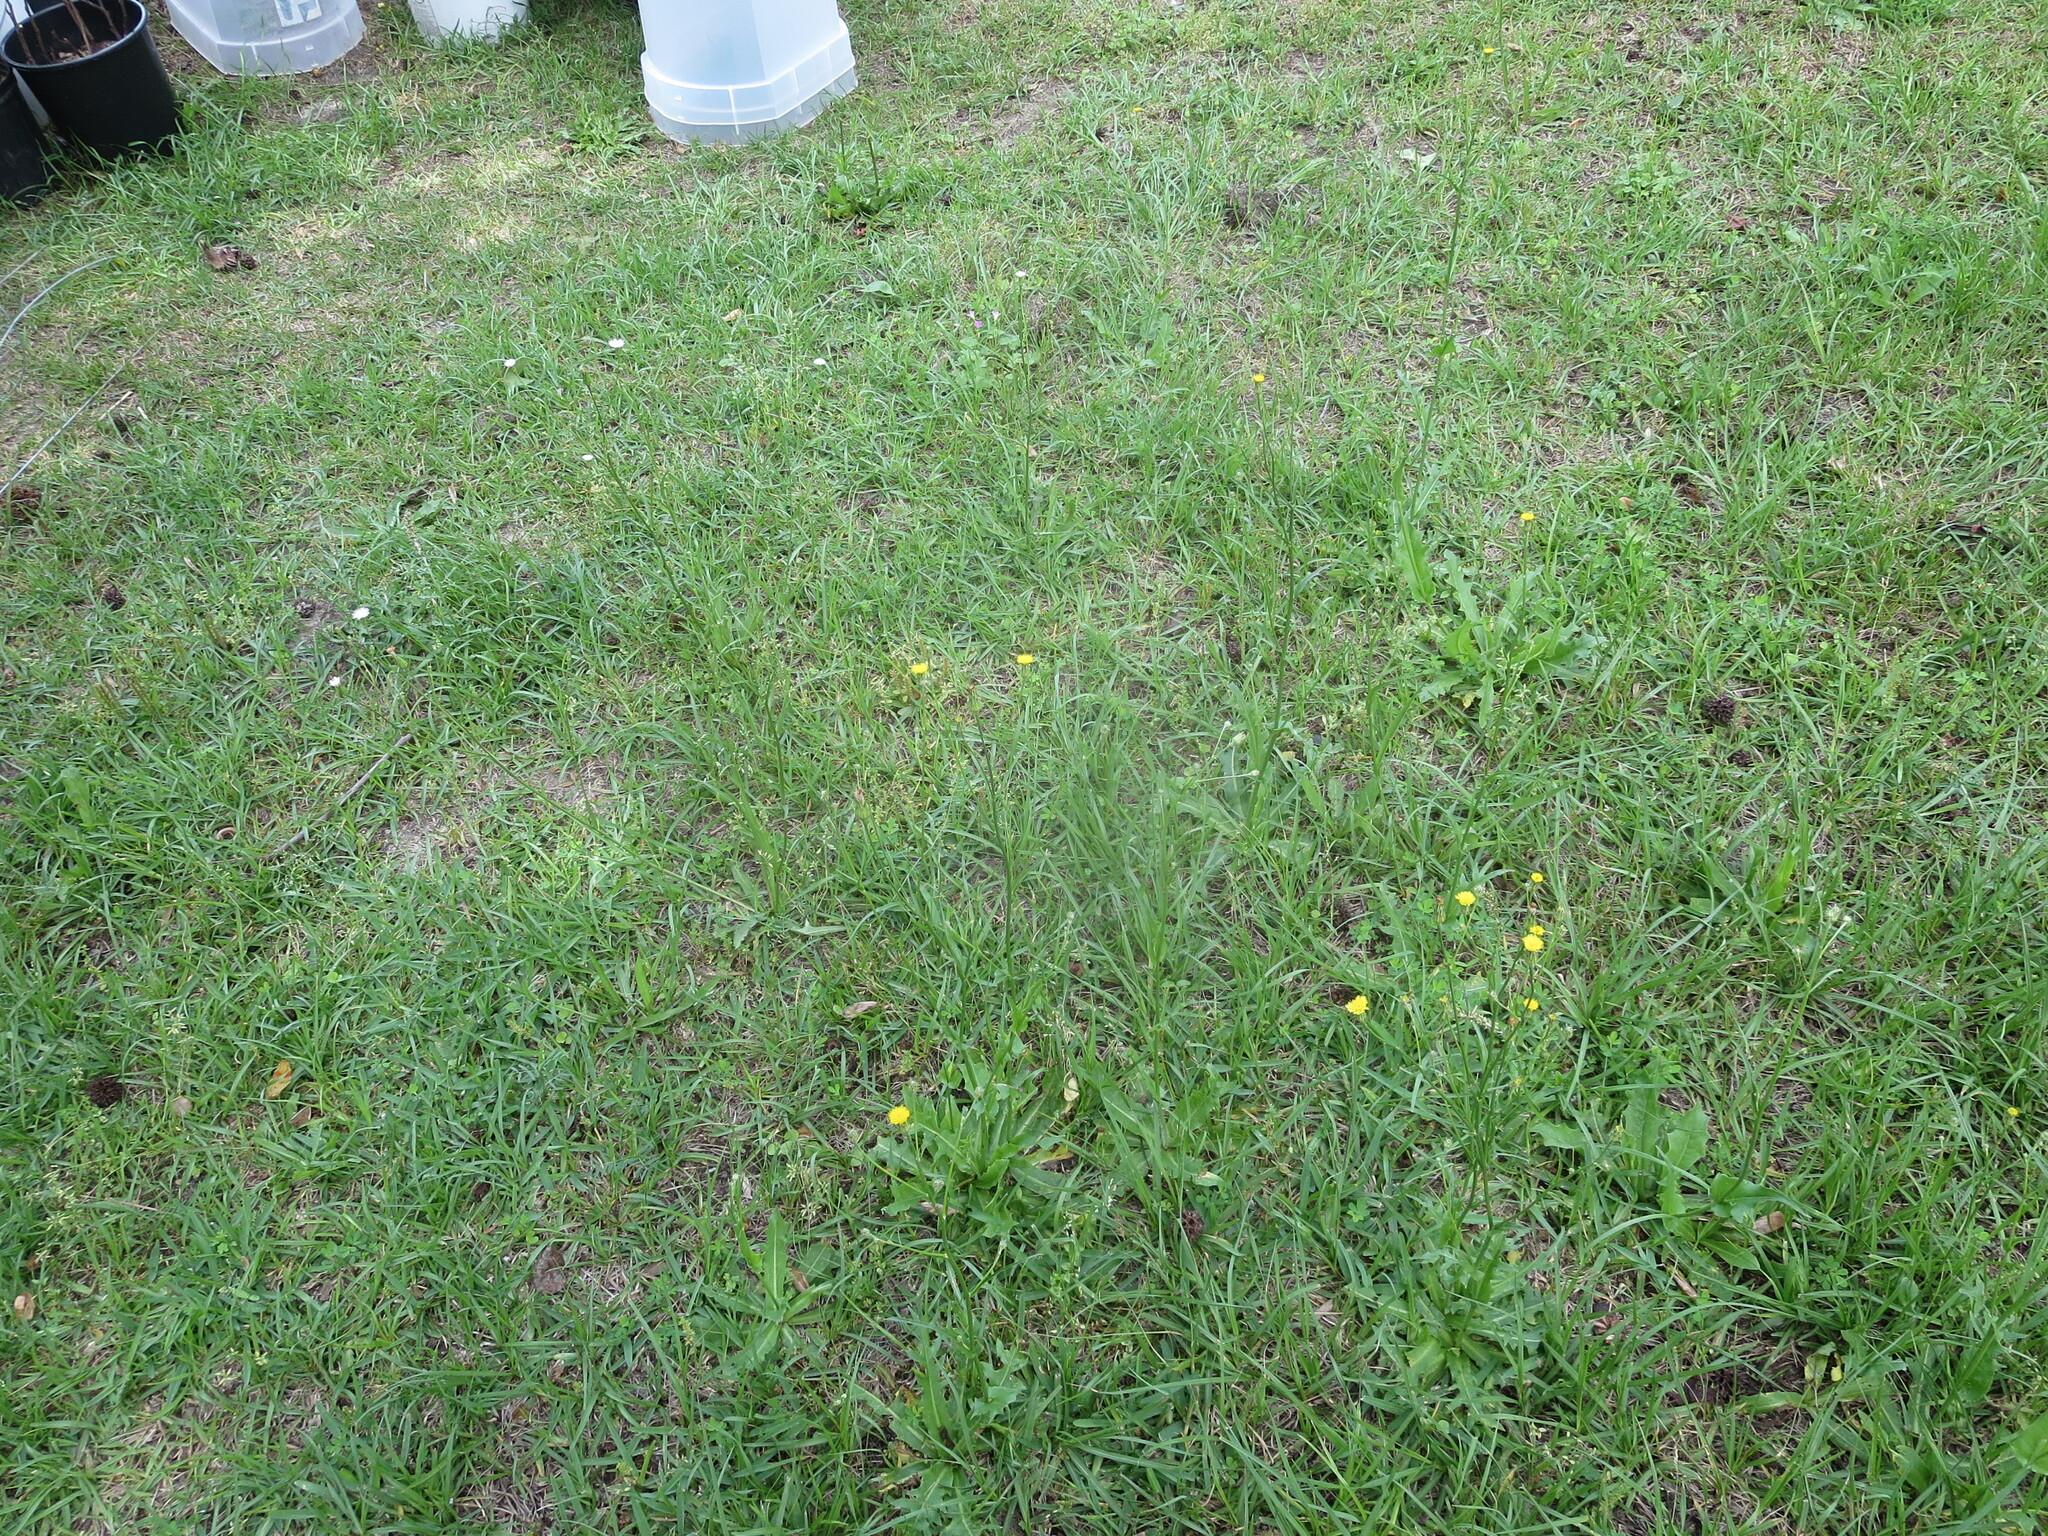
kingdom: Plantae
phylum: Tracheophyta
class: Magnoliopsida
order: Asterales
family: Asteraceae
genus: Hypochaeris
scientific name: Hypochaeris chillensis
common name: Brazilian cat's ear
